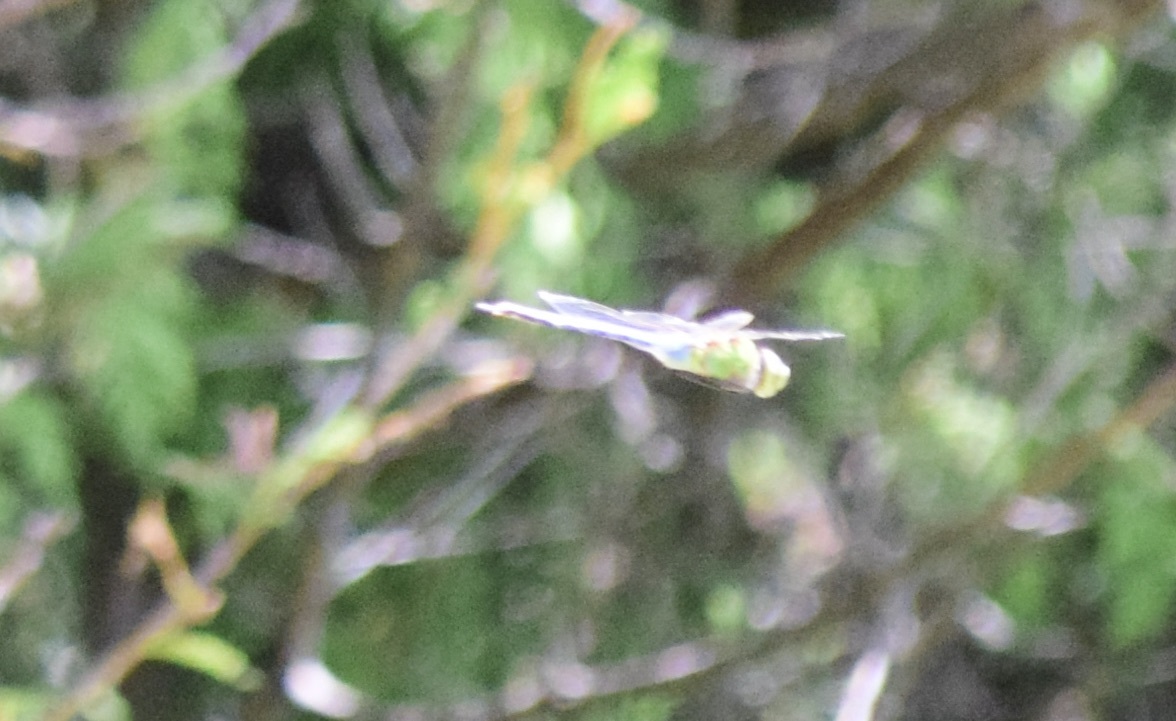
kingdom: Animalia
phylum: Arthropoda
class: Insecta
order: Odonata
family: Aeshnidae
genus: Anax
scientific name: Anax junius
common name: Common green darner
